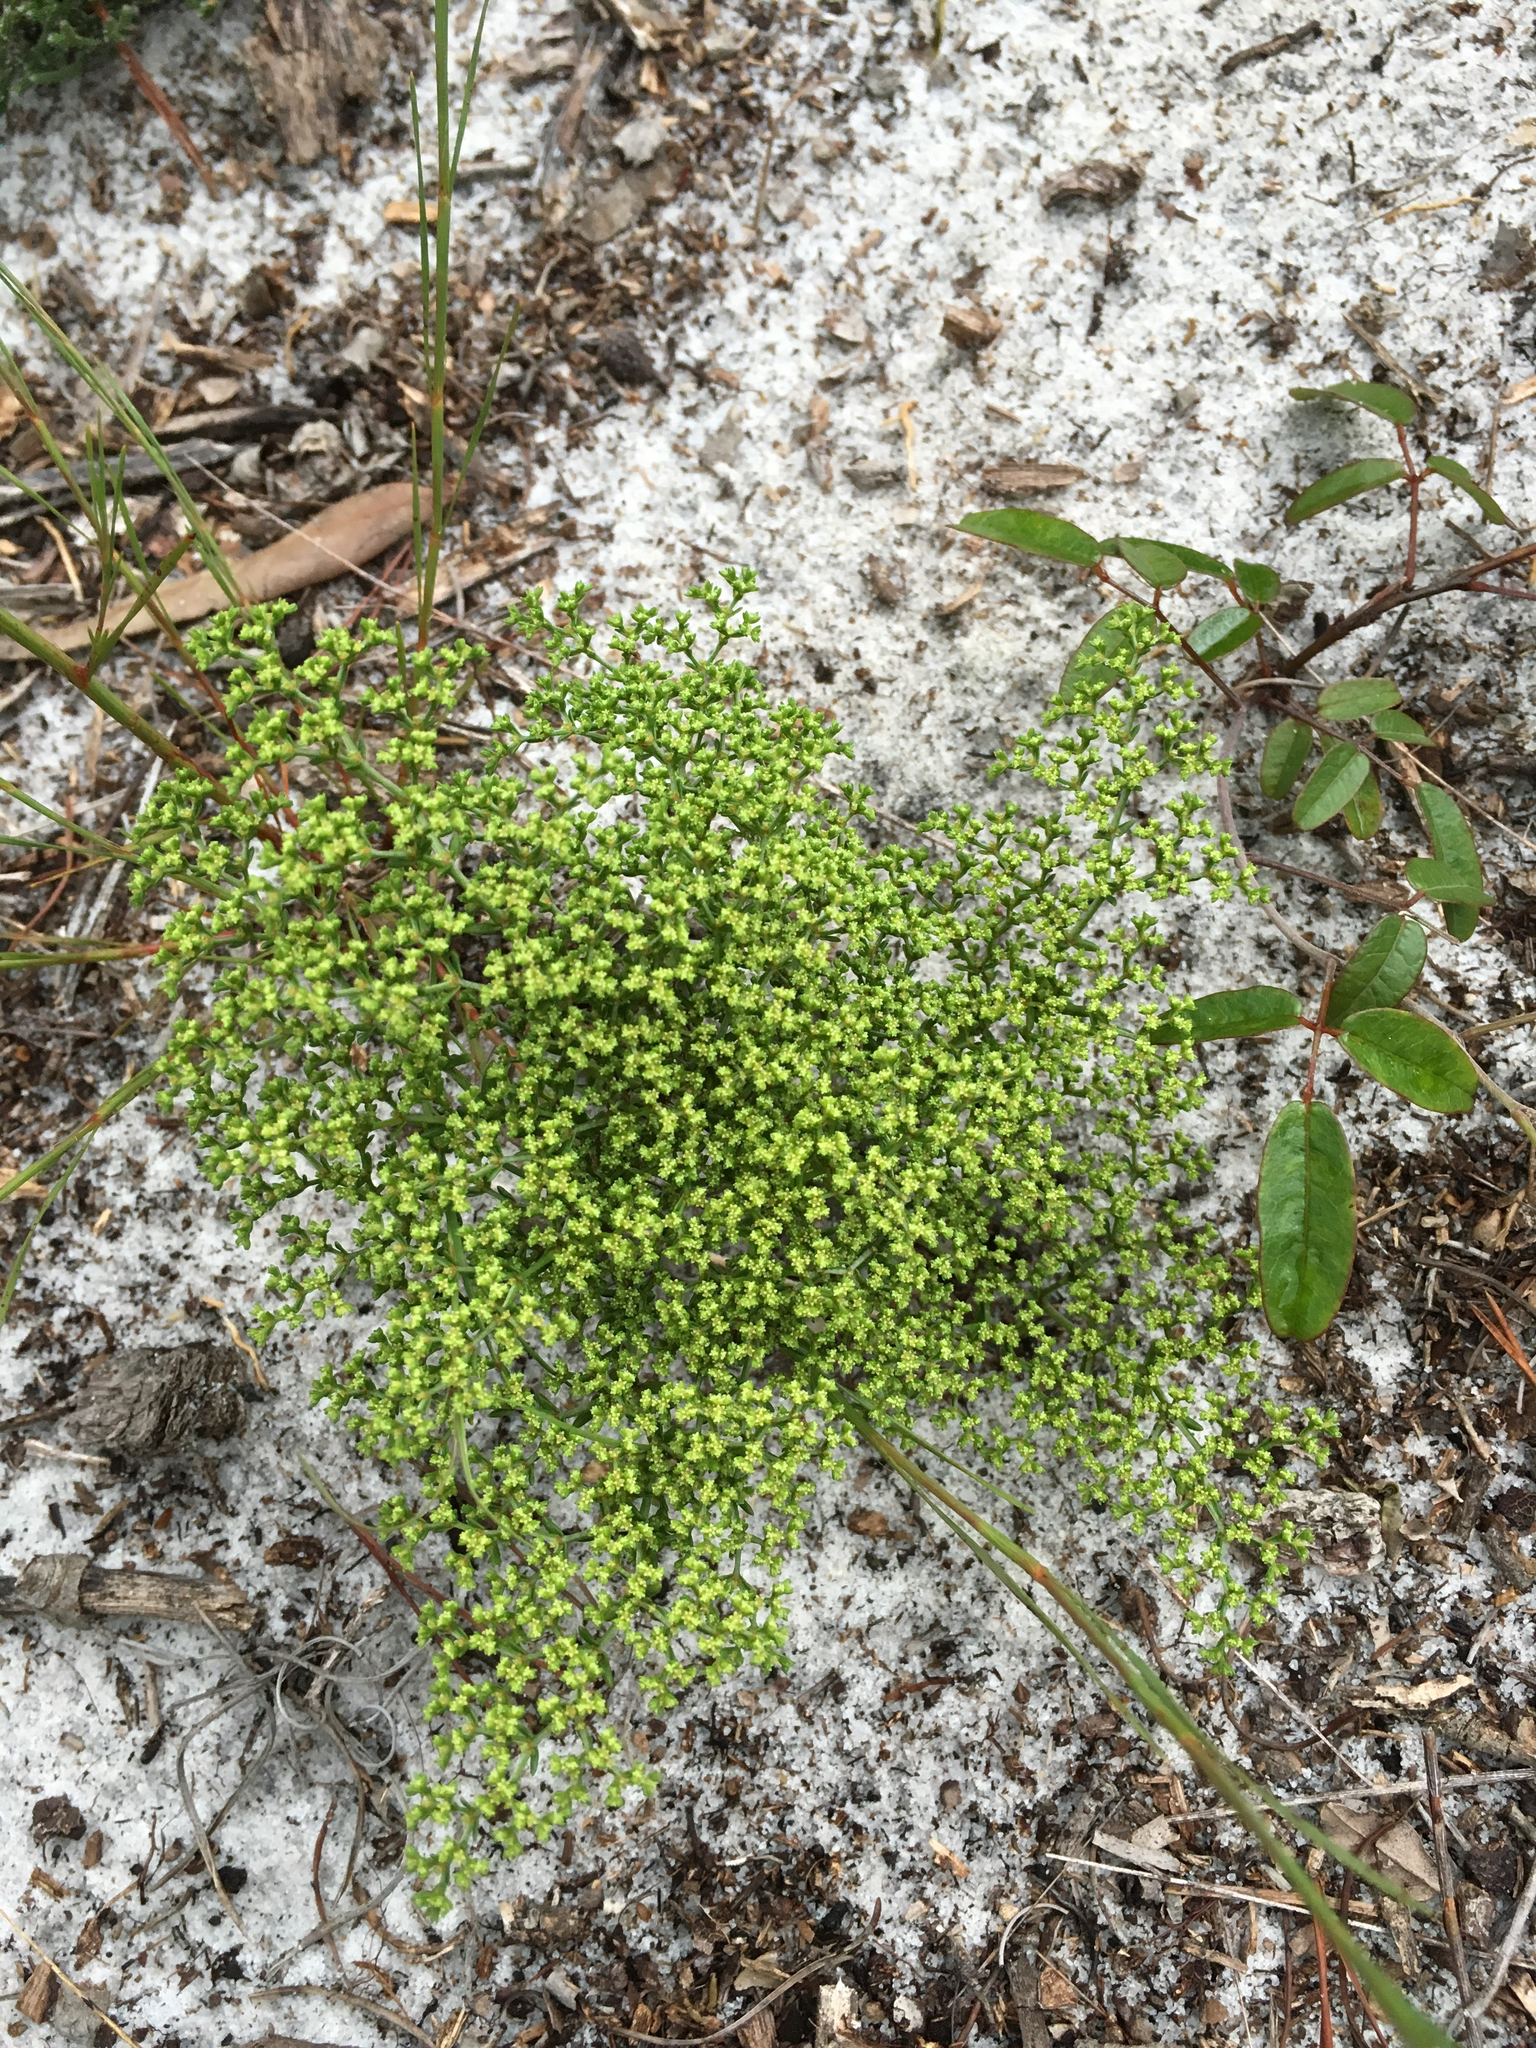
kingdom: Plantae
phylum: Tracheophyta
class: Magnoliopsida
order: Caryophyllales
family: Caryophyllaceae
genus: Paronychia
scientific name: Paronychia chartacea
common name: Paper nailwort
